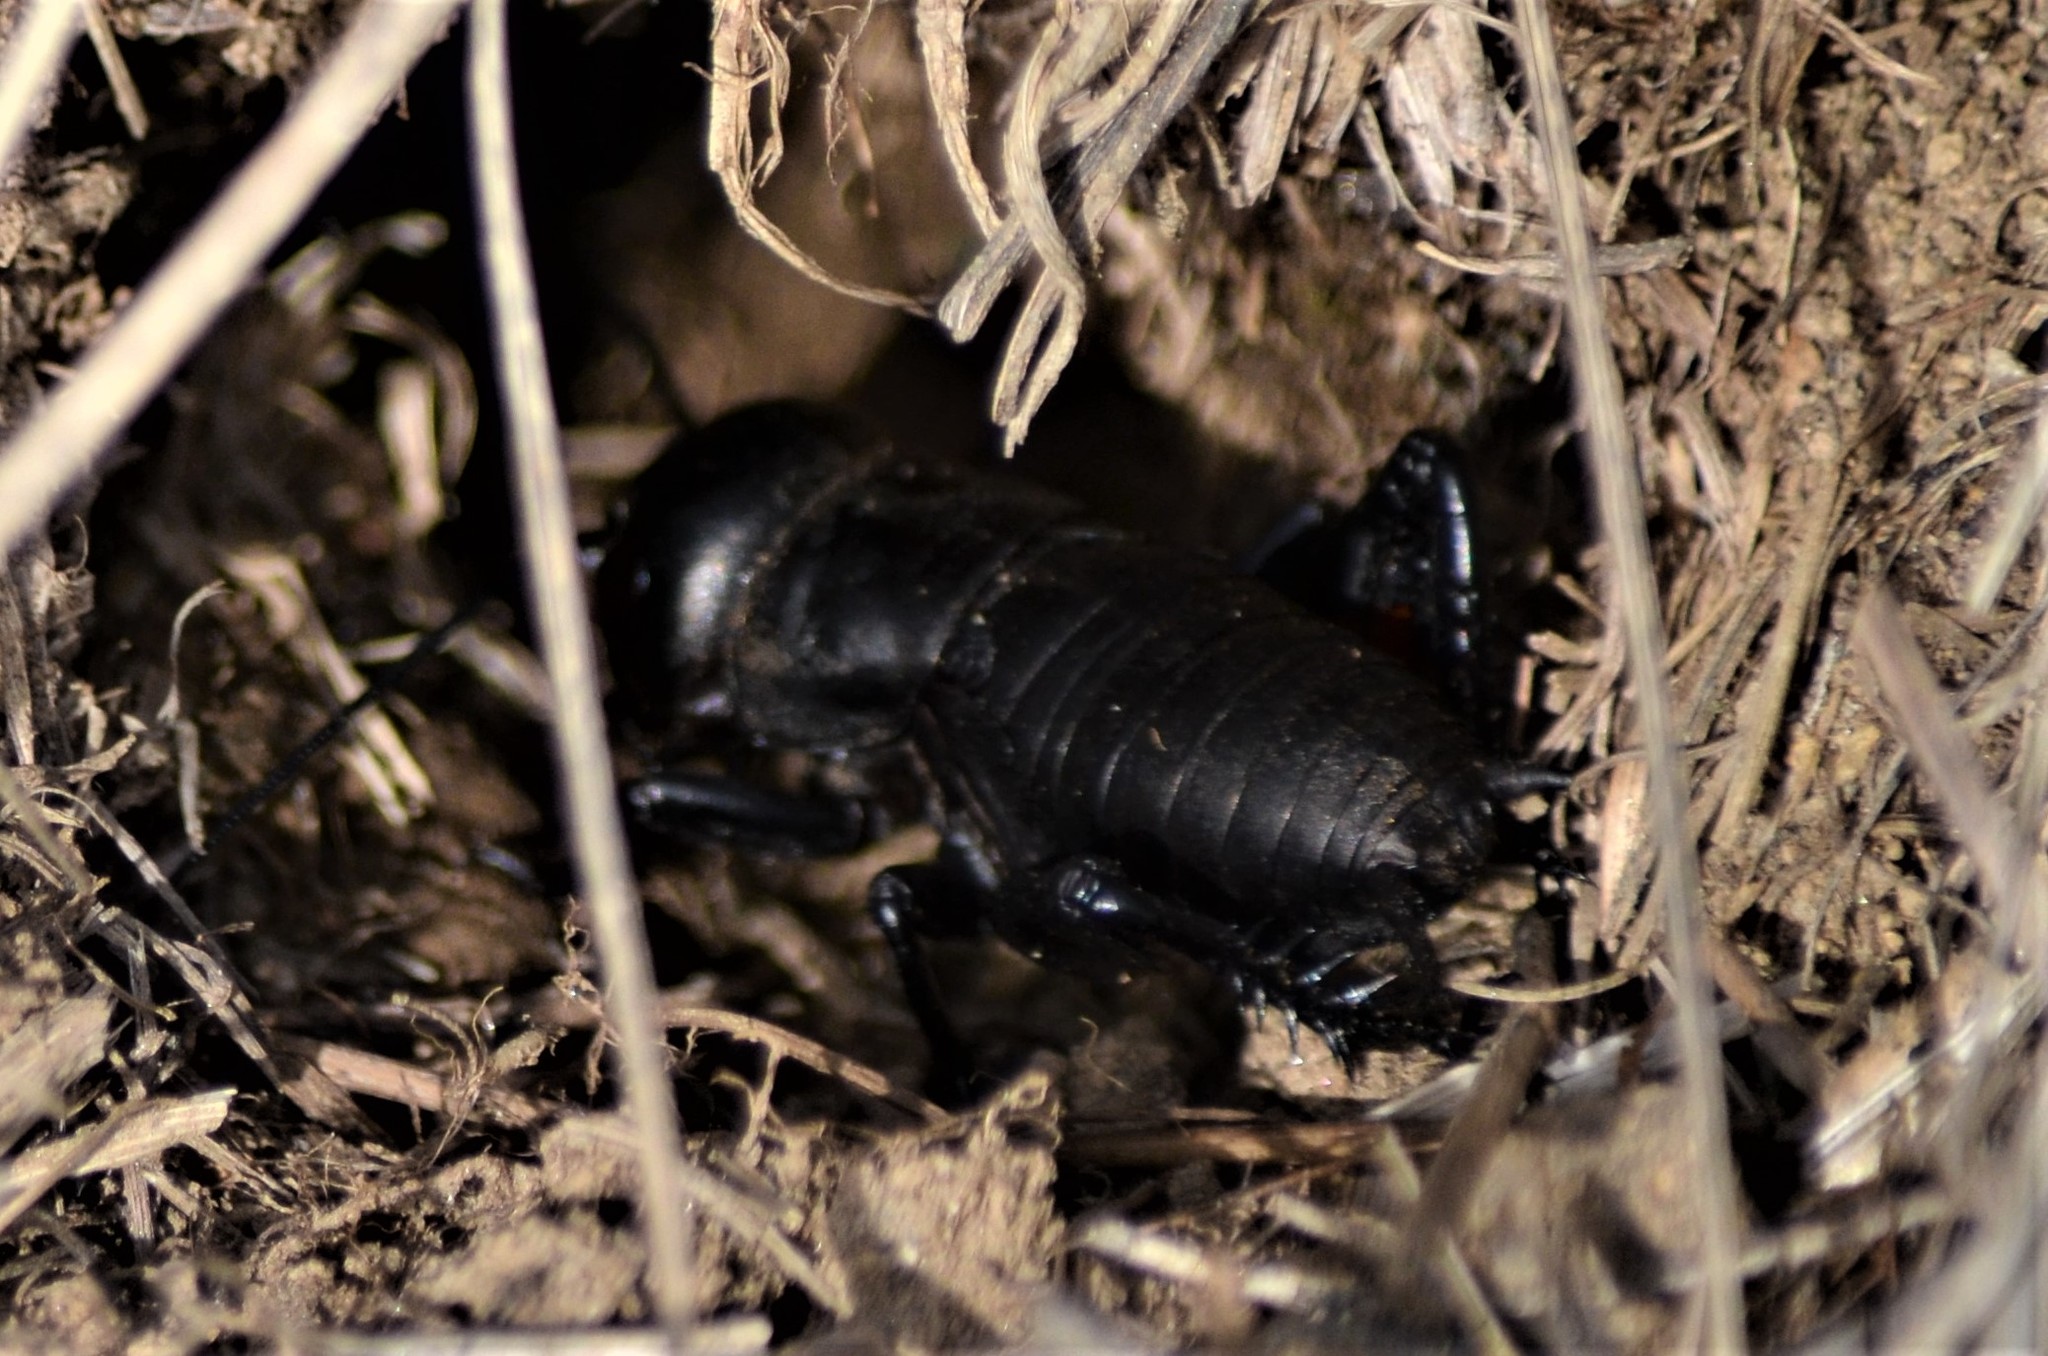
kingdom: Animalia
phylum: Arthropoda
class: Insecta
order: Orthoptera
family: Gryllidae
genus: Gryllus
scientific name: Gryllus campestris
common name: Field cricket
